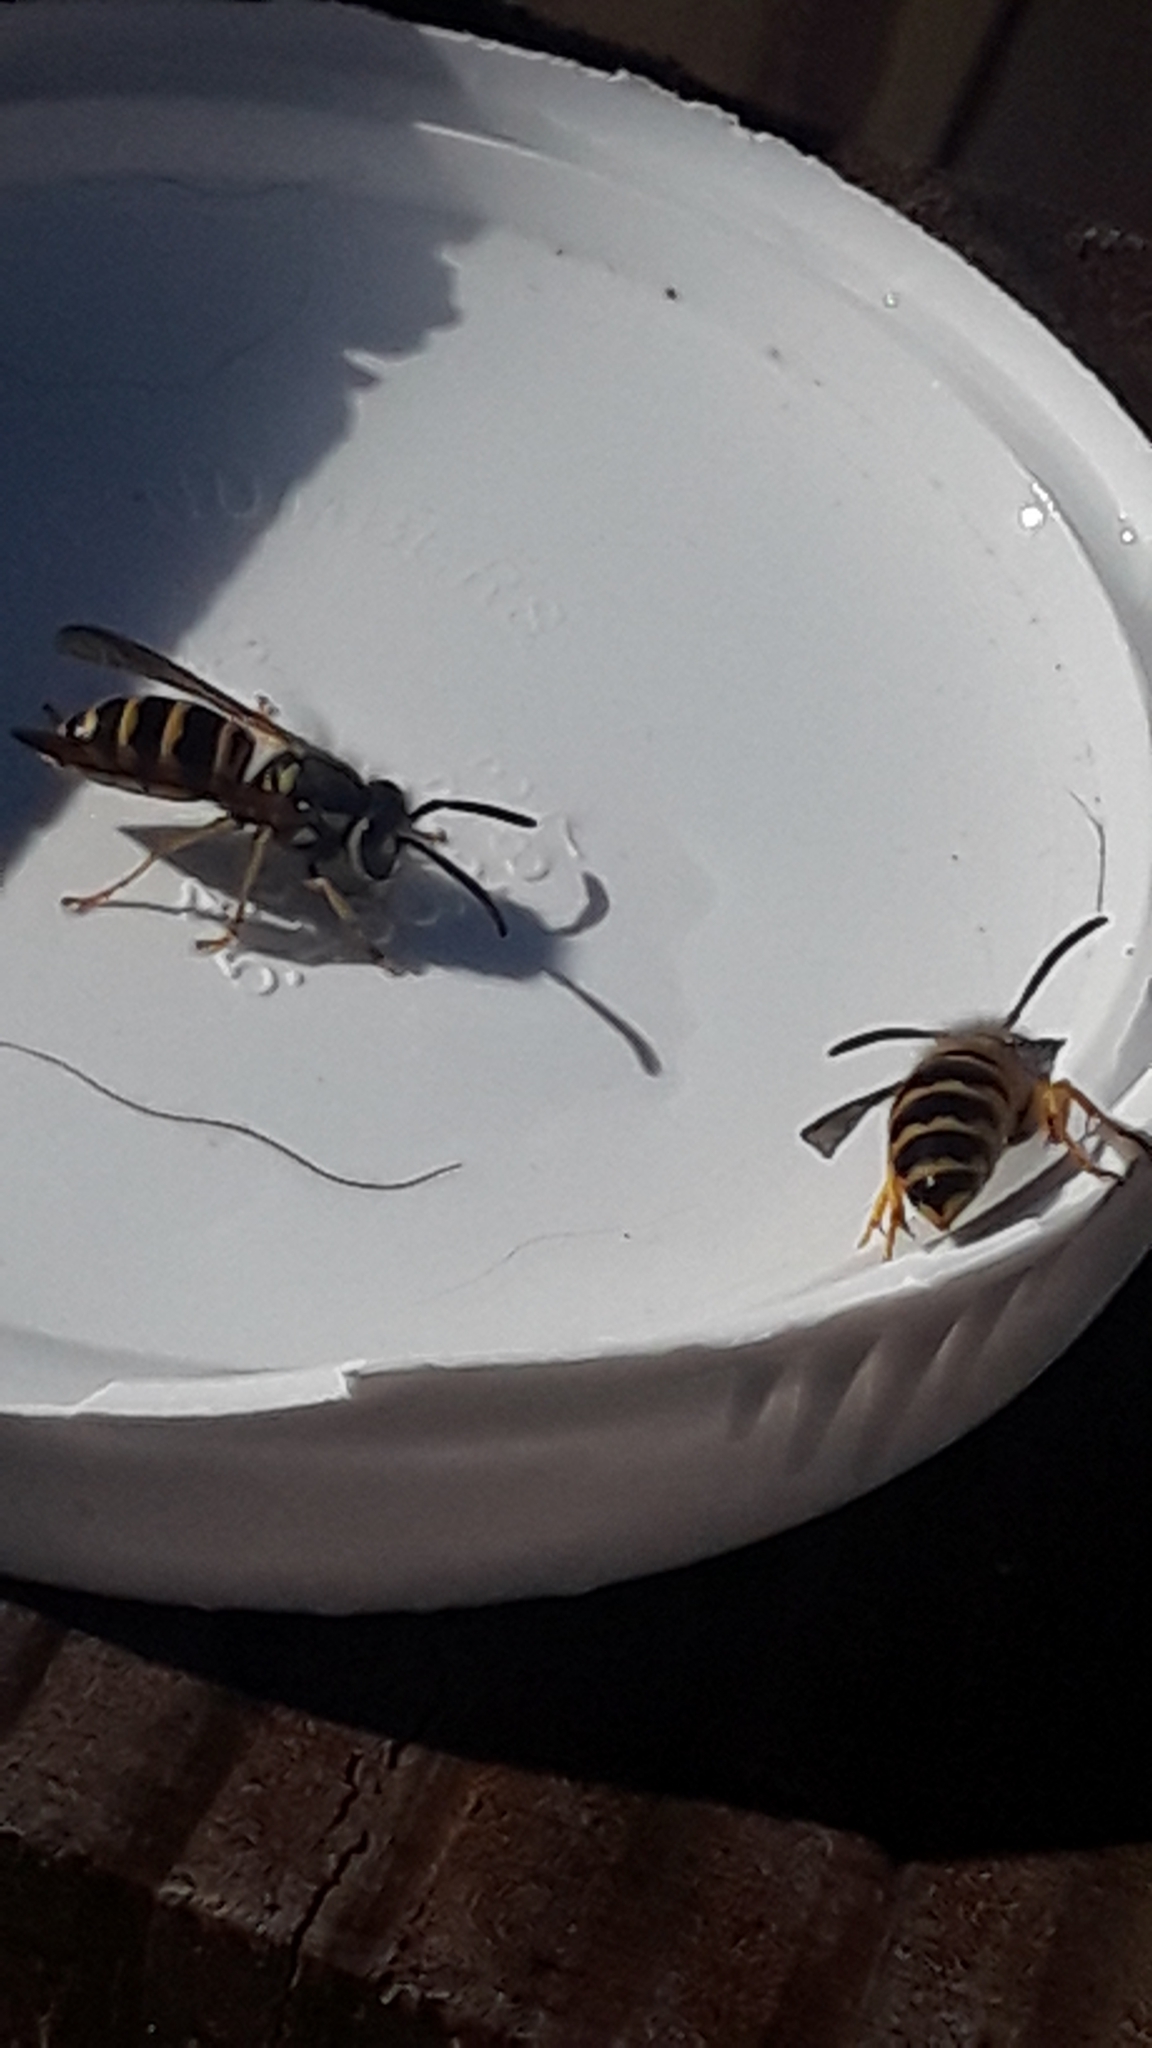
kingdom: Animalia
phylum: Arthropoda
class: Insecta
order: Hymenoptera
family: Vespidae
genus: Vespula
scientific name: Vespula maculifrons
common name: Eastern yellowjacket
